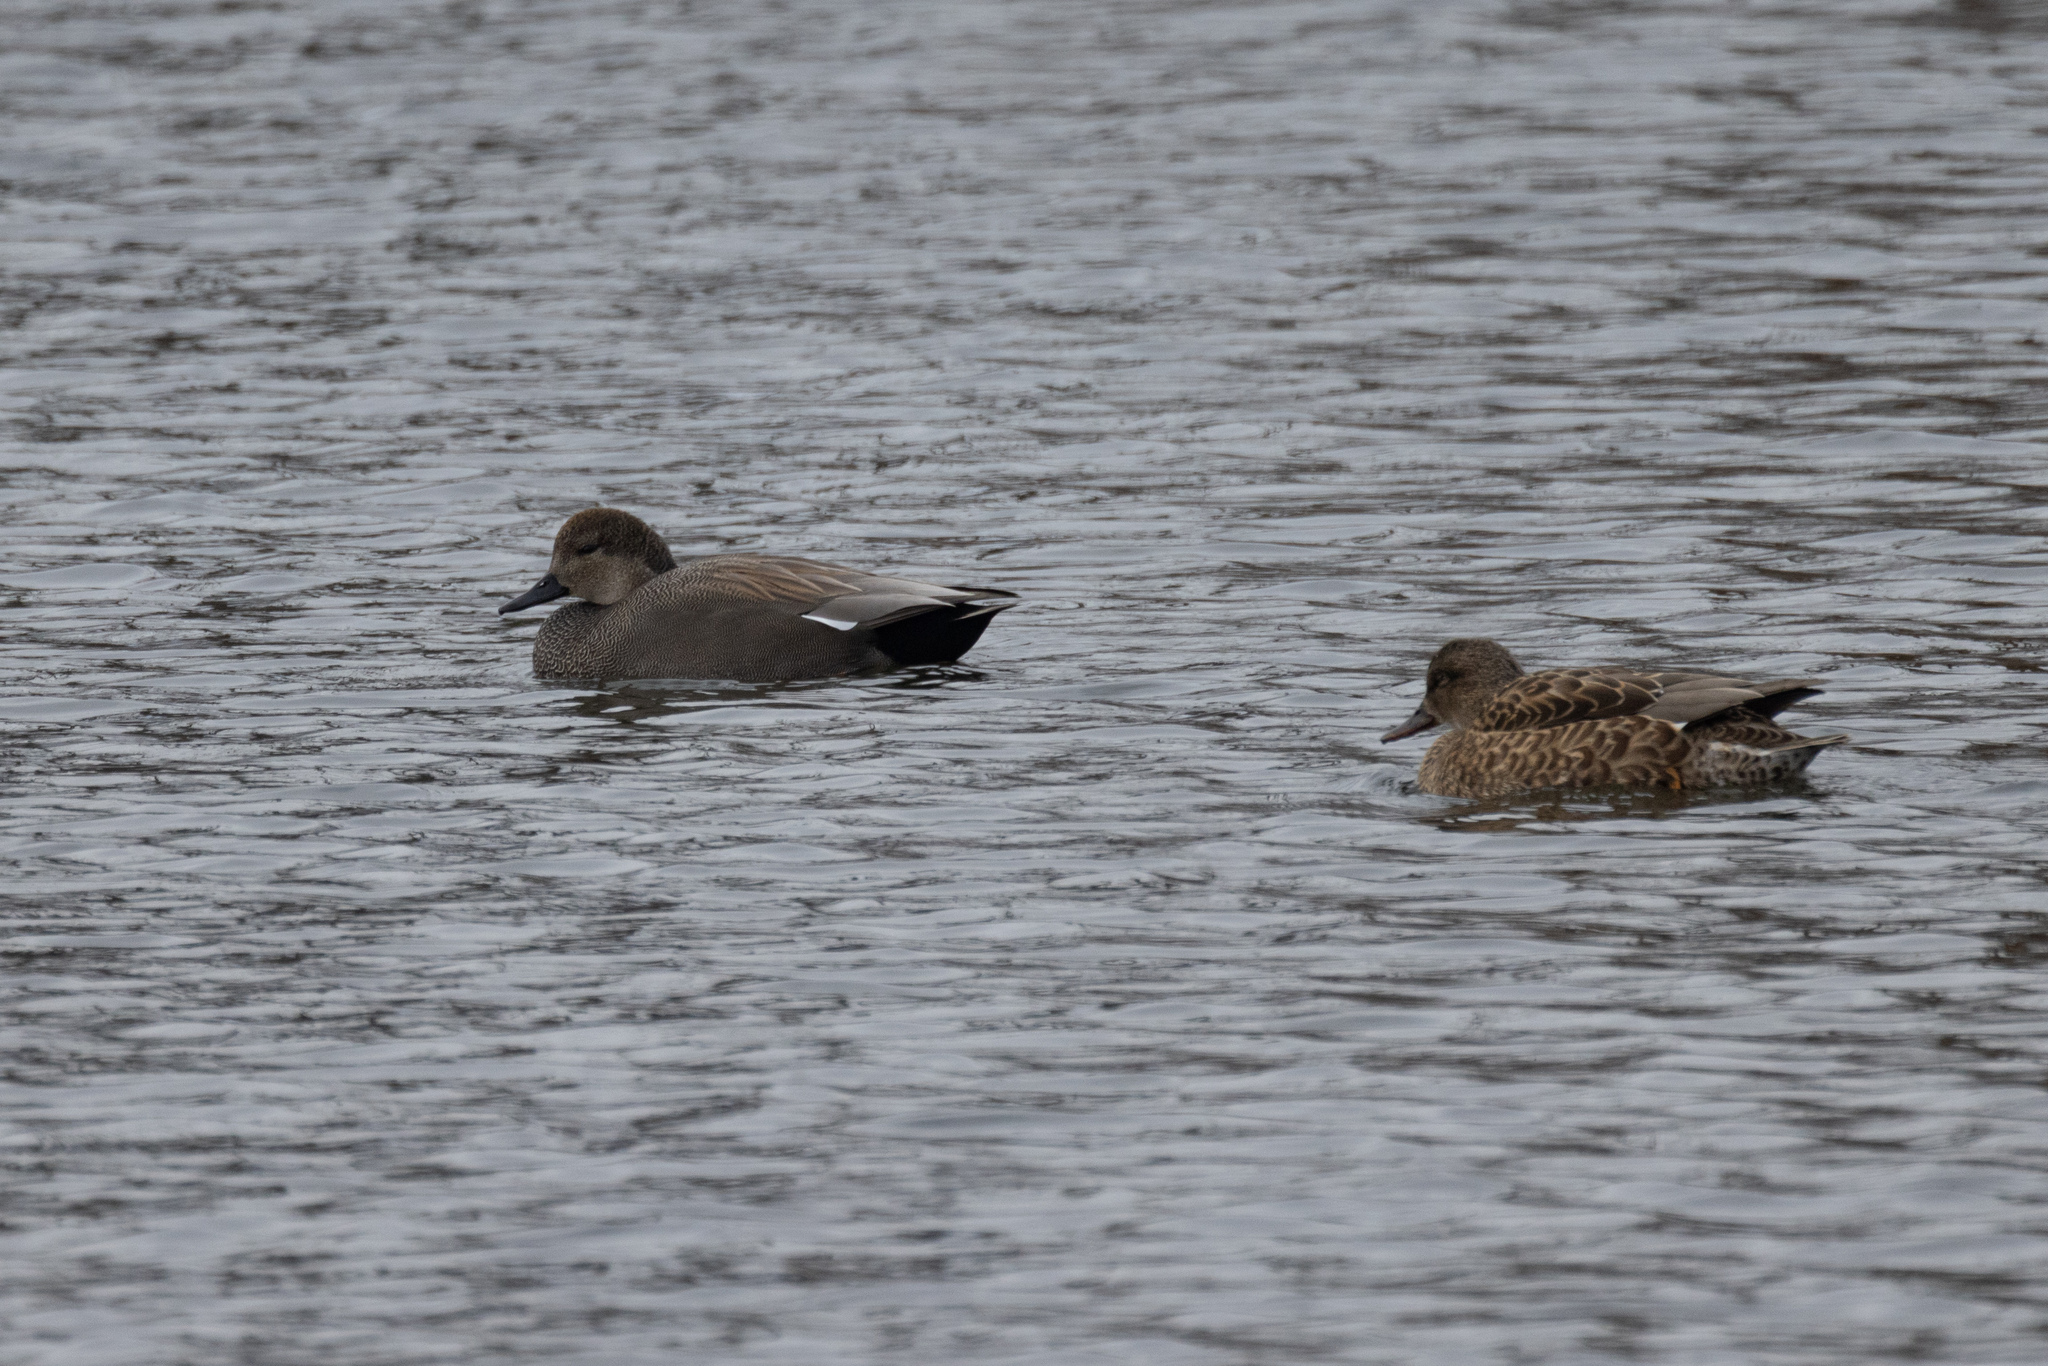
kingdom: Animalia
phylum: Chordata
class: Aves
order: Anseriformes
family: Anatidae
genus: Mareca
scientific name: Mareca strepera
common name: Gadwall
